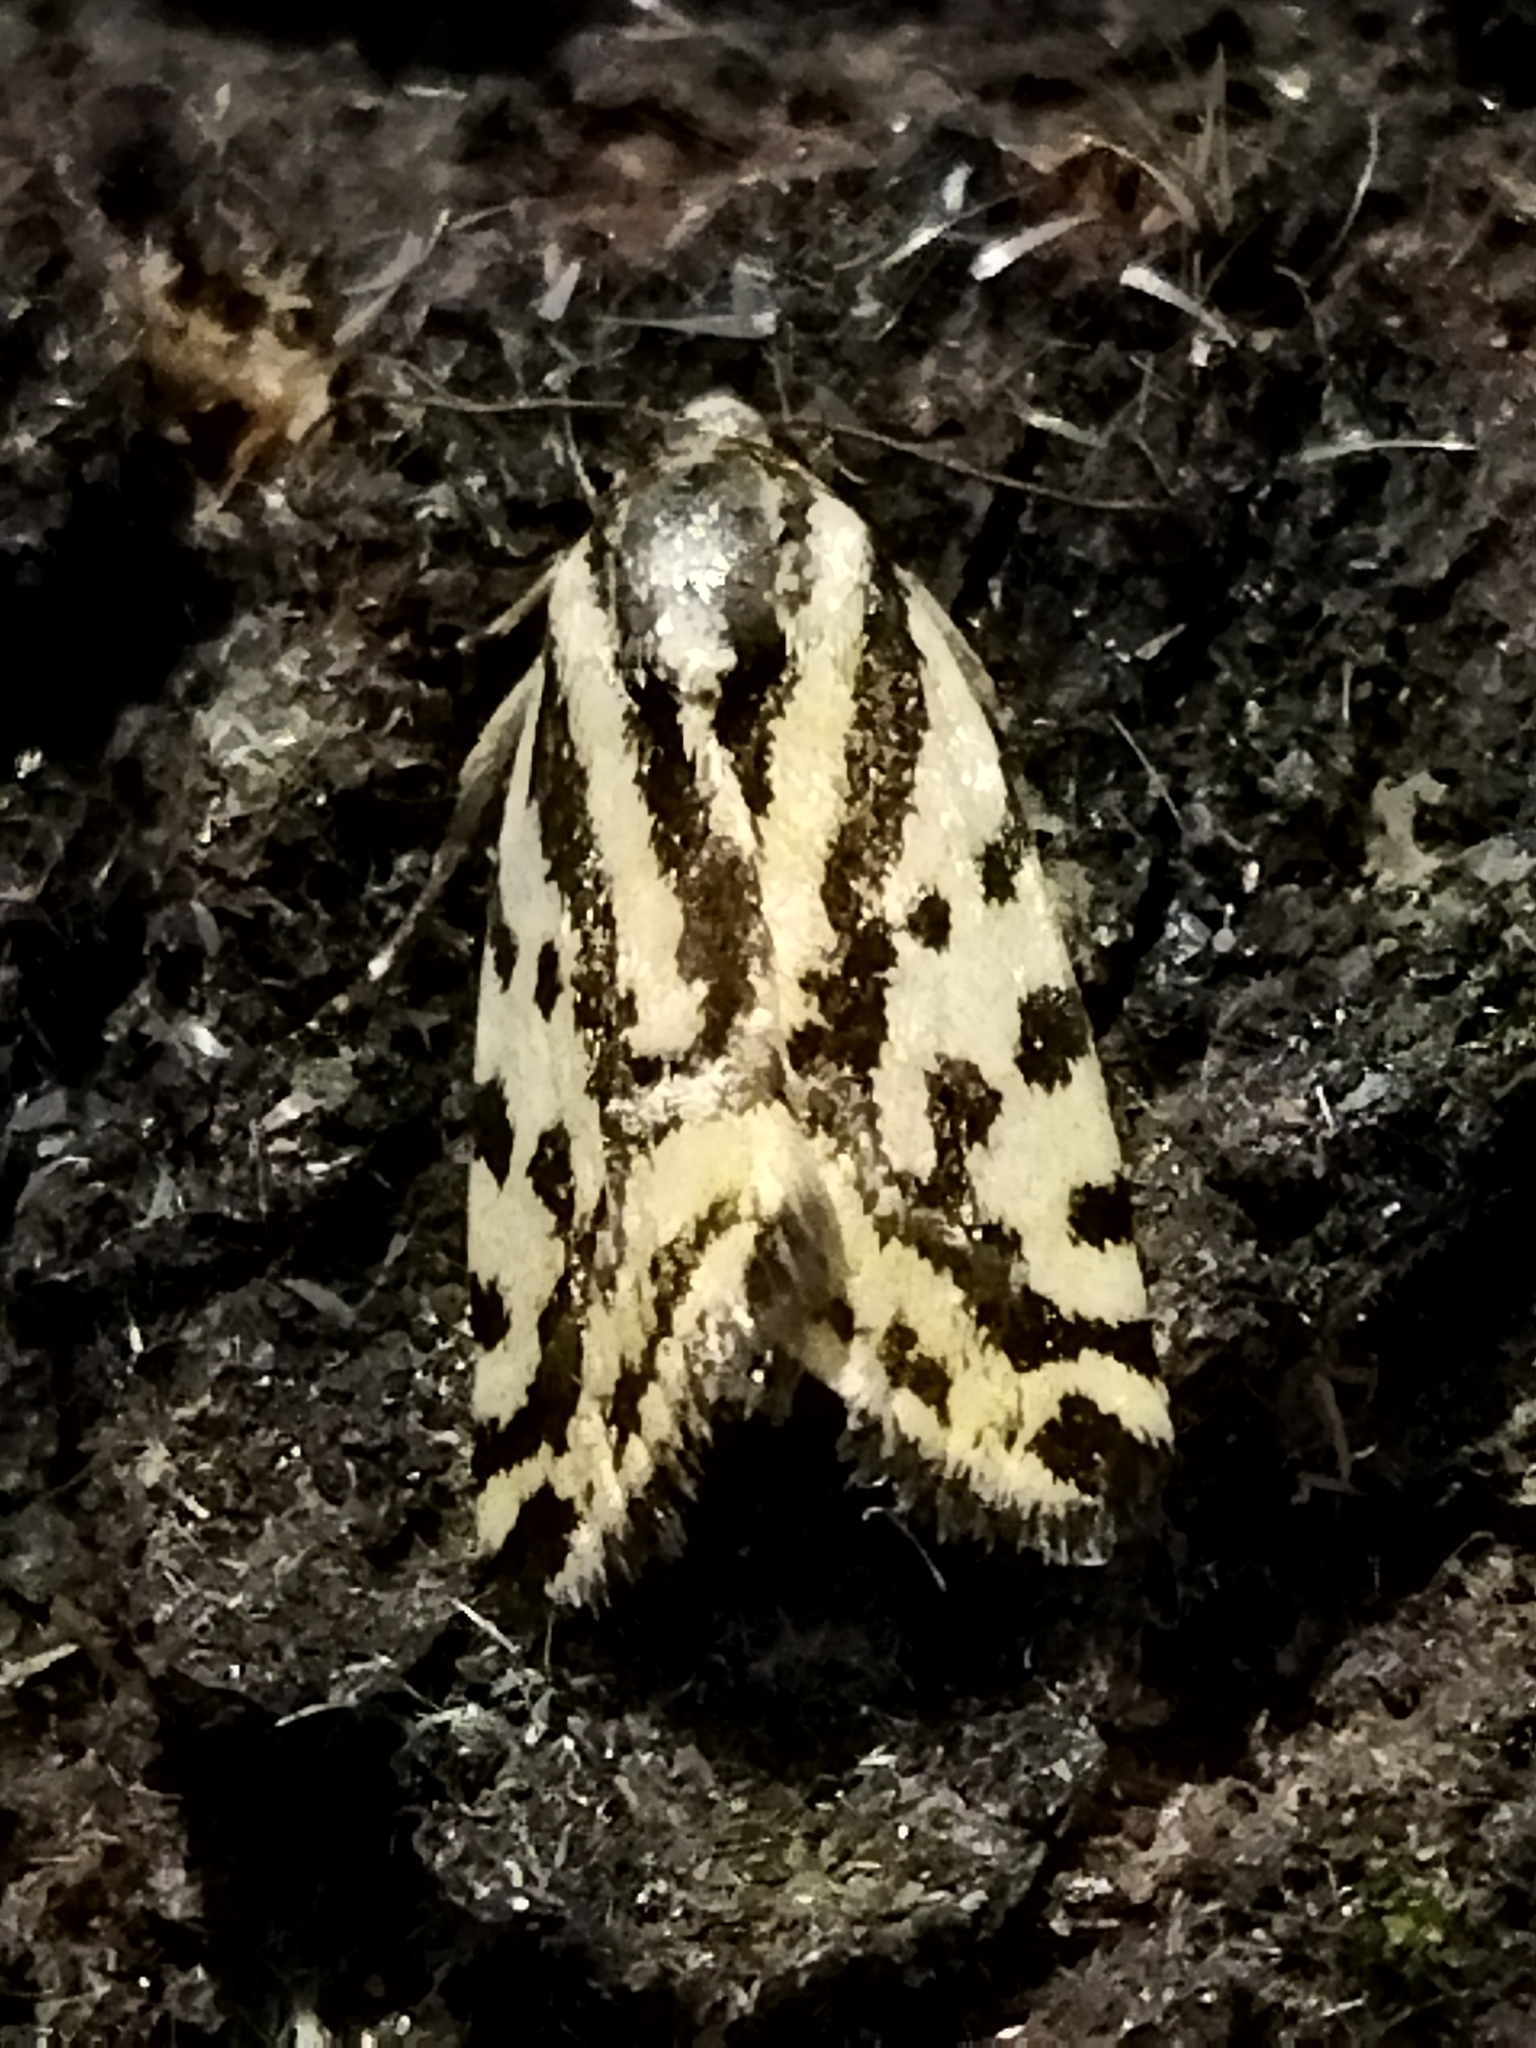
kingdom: Animalia
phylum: Arthropoda
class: Insecta
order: Lepidoptera
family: Noctuidae
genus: Acontia
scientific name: Acontia trabealis
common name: Spotted sulphur
